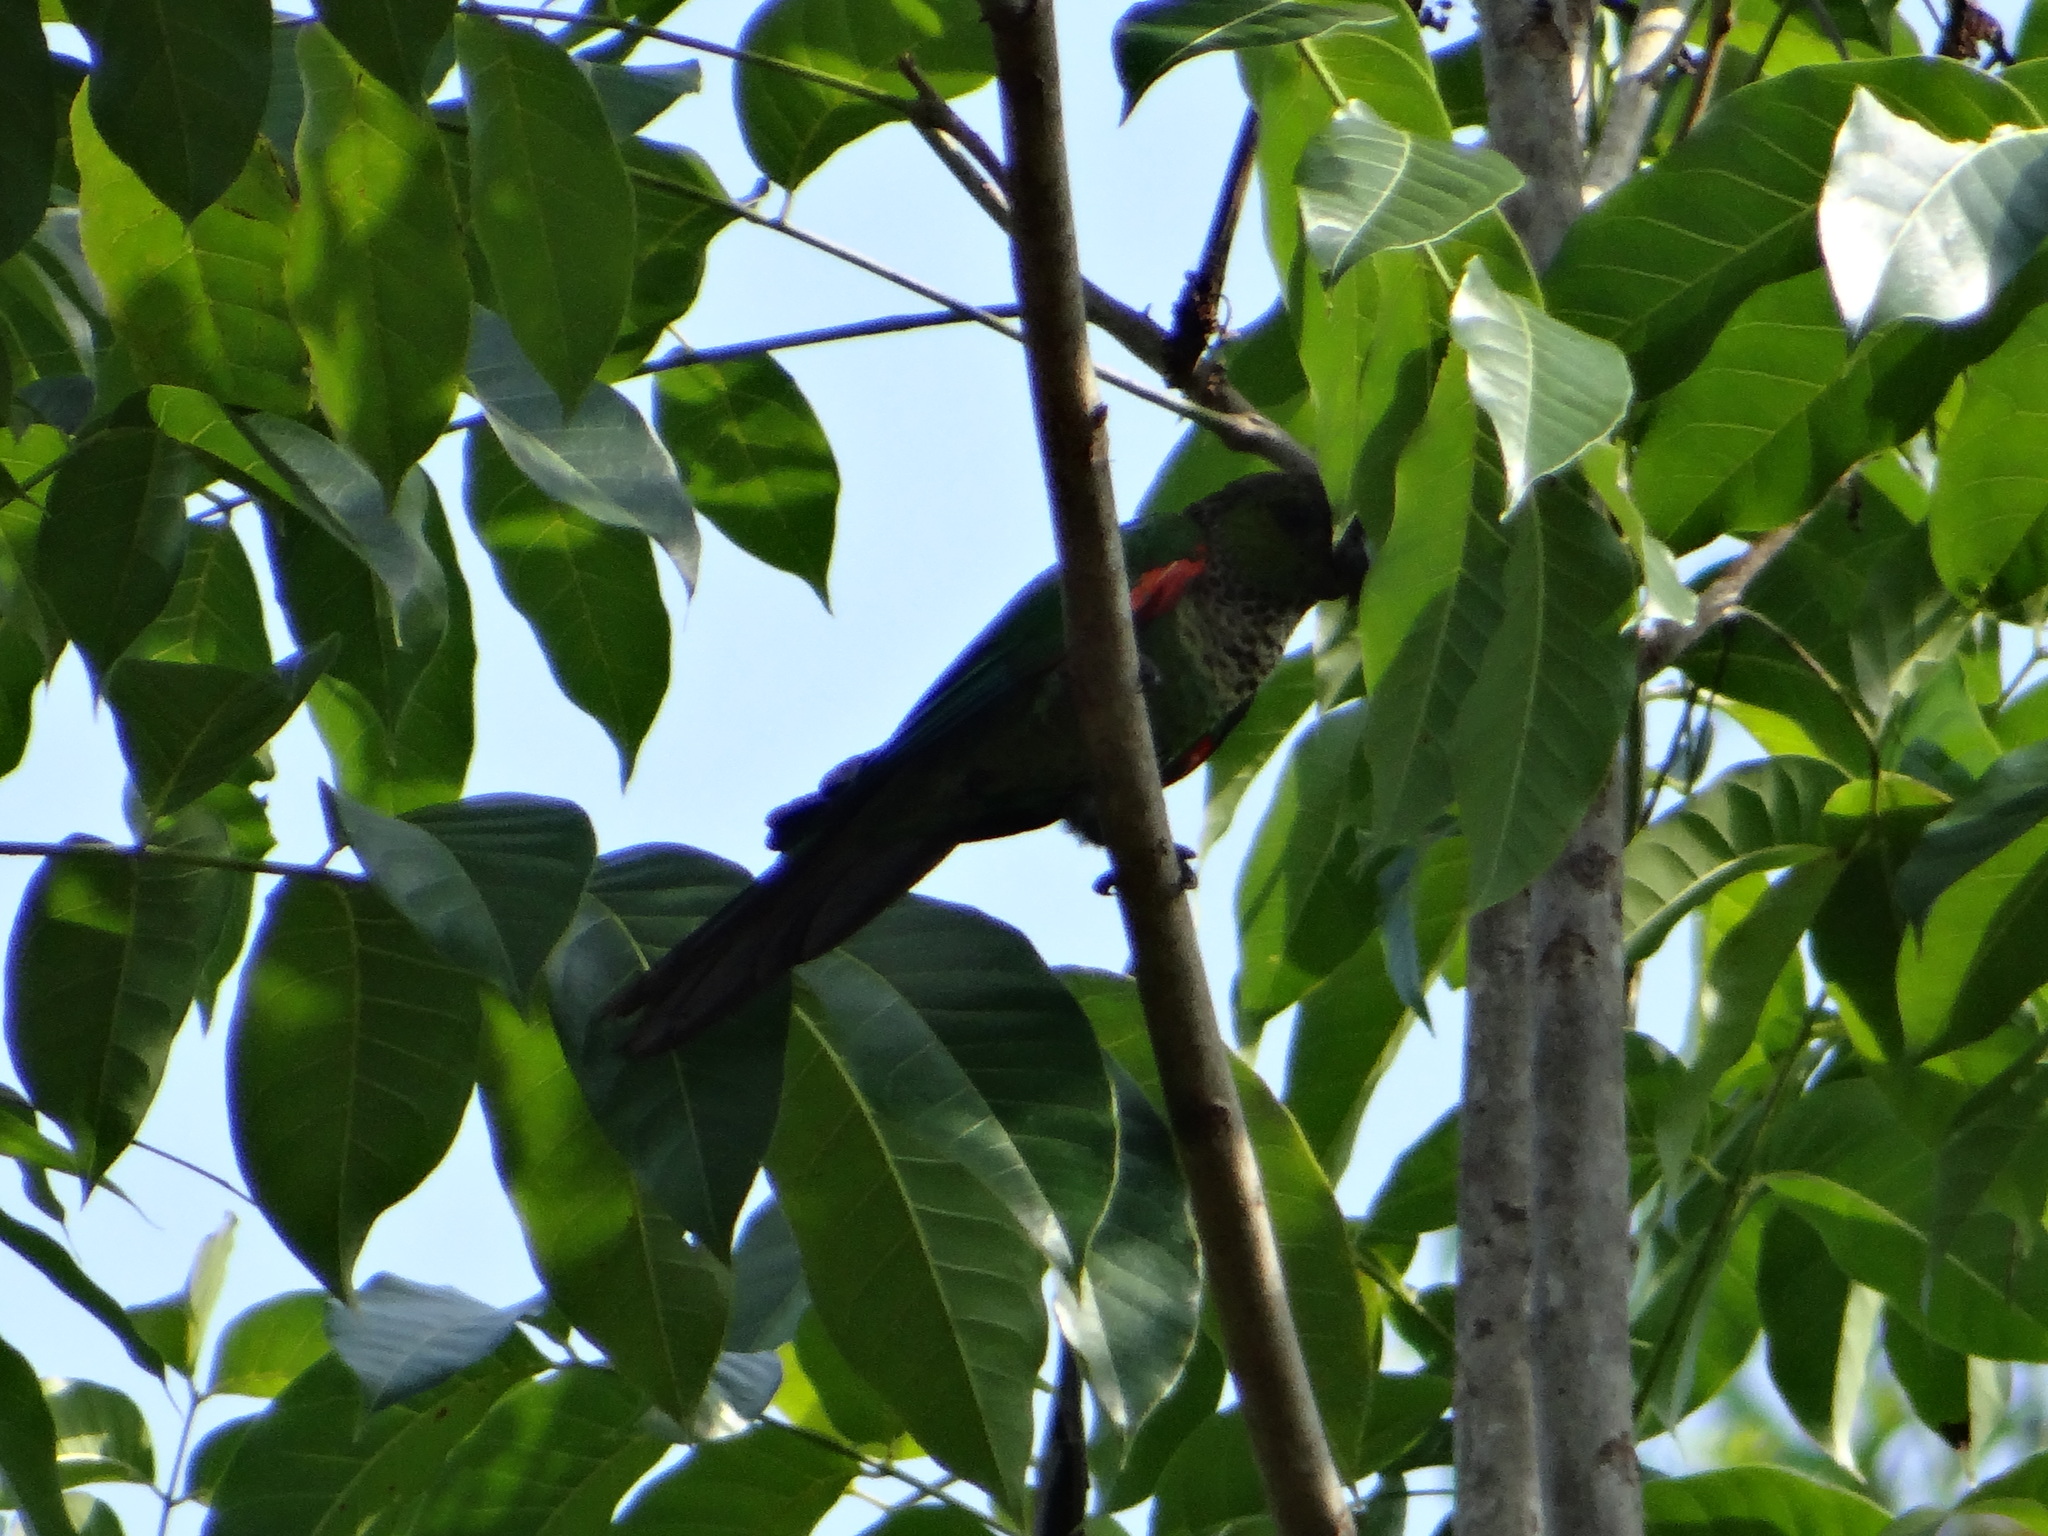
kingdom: Animalia
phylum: Chordata
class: Aves
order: Psittaciformes
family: Psittacidae
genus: Pyrrhura
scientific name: Pyrrhura rupicola
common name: Black-capped parakeet
